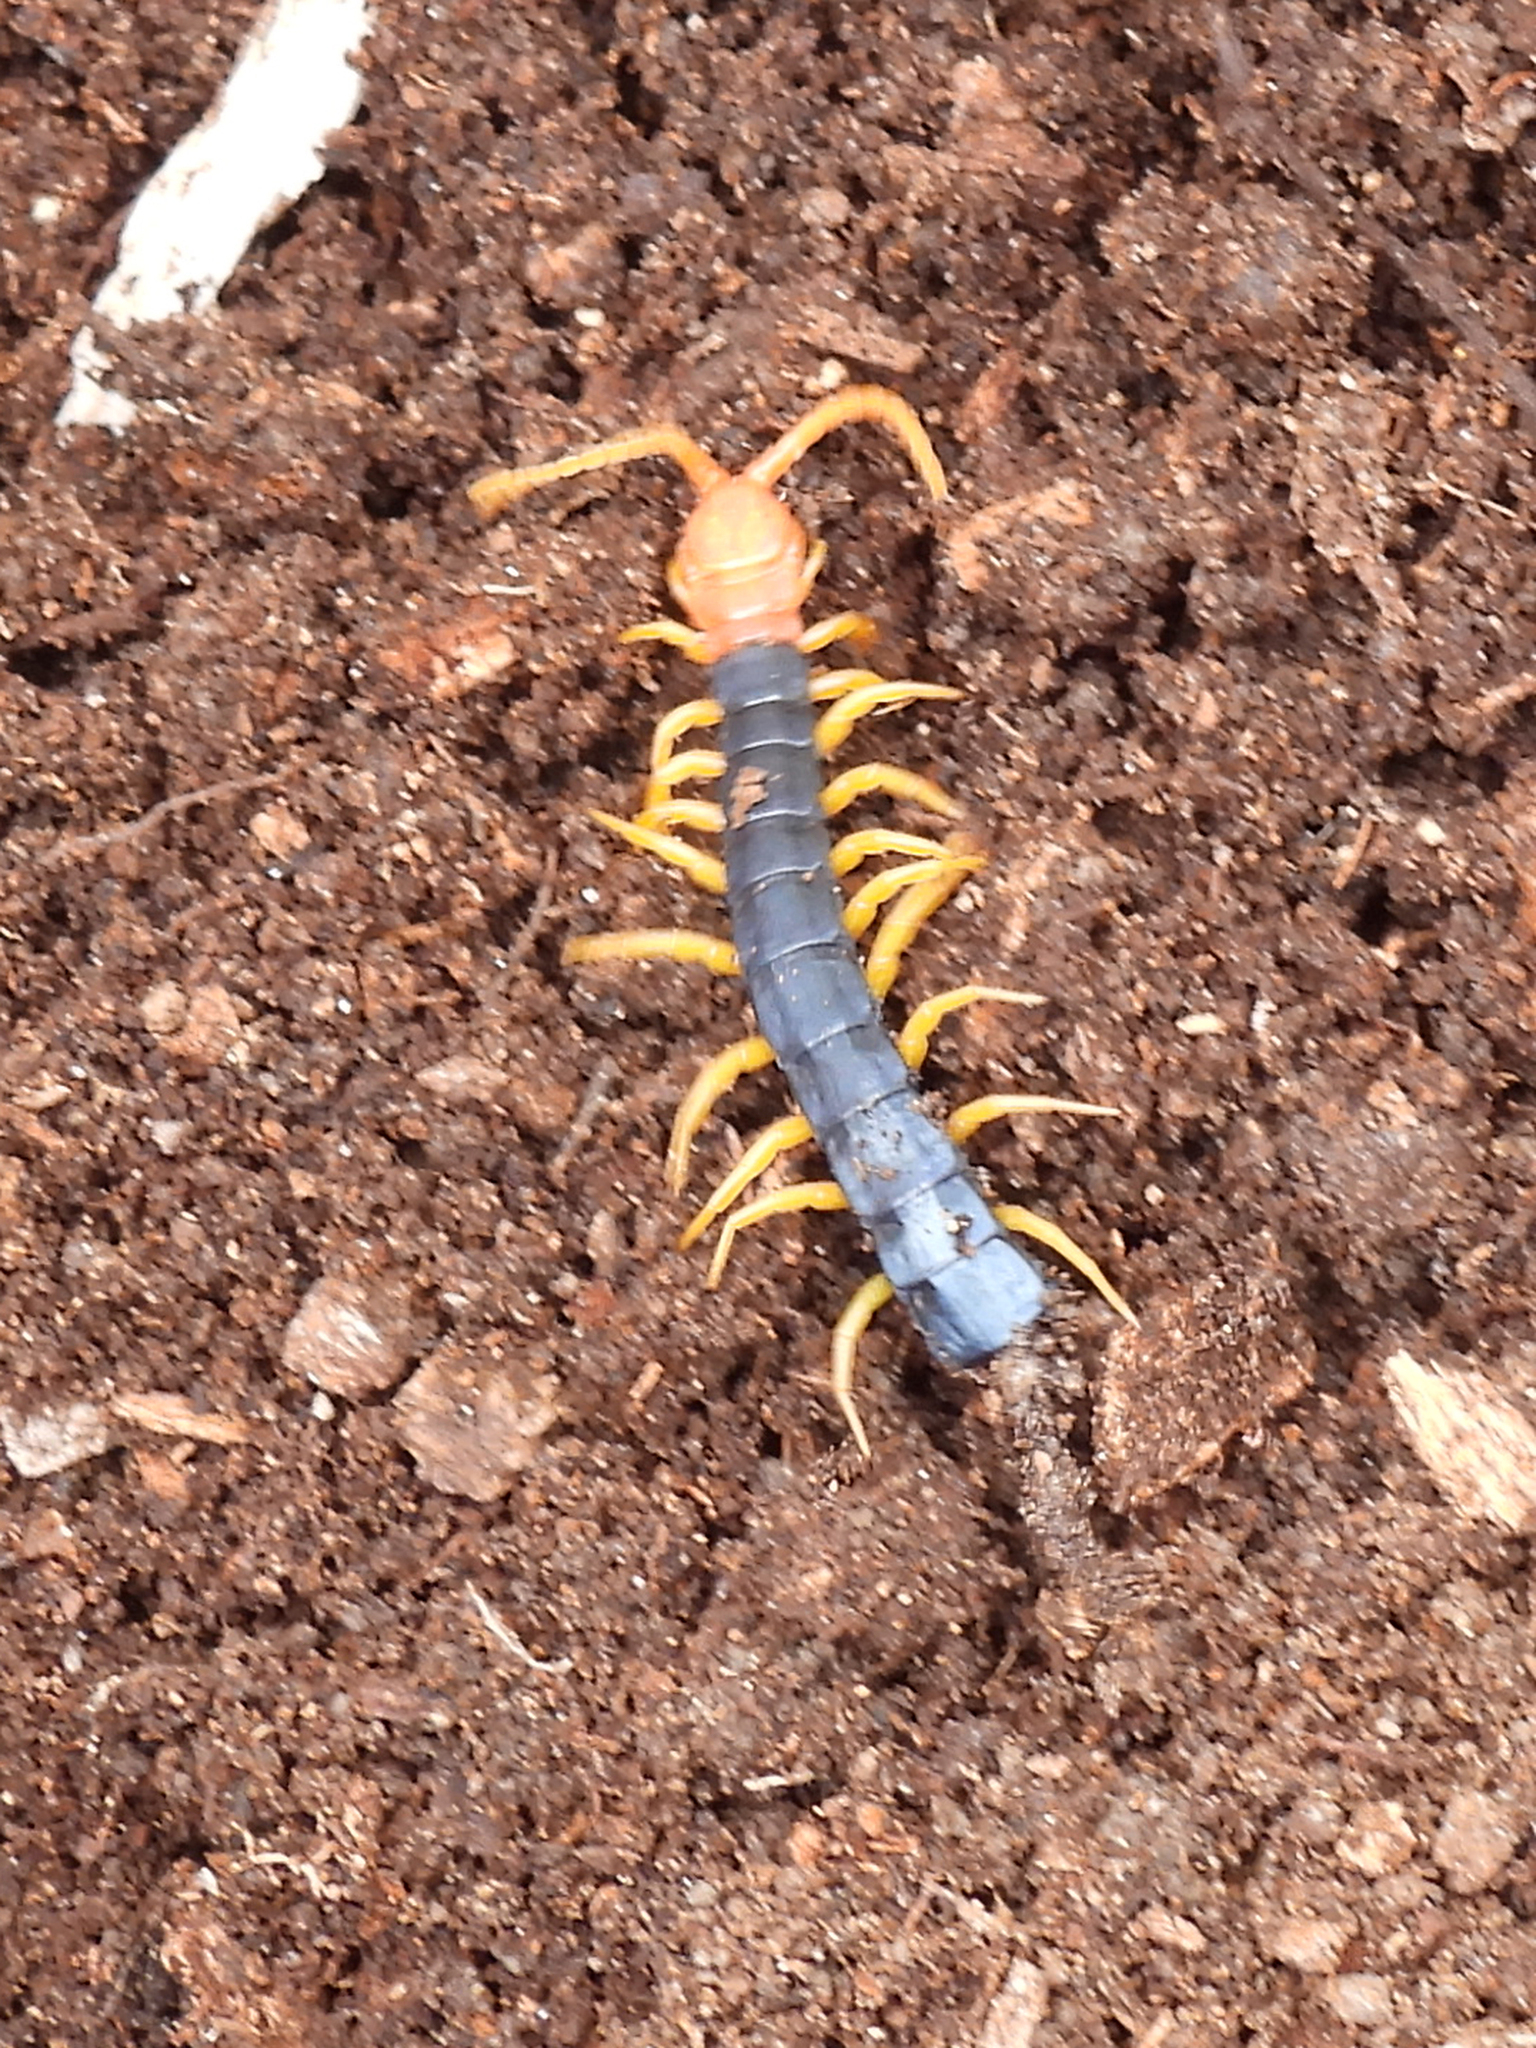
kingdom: Animalia
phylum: Arthropoda
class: Chilopoda
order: Scolopendromorpha
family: Scolopendridae
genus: Scolopendra
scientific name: Scolopendra heros
